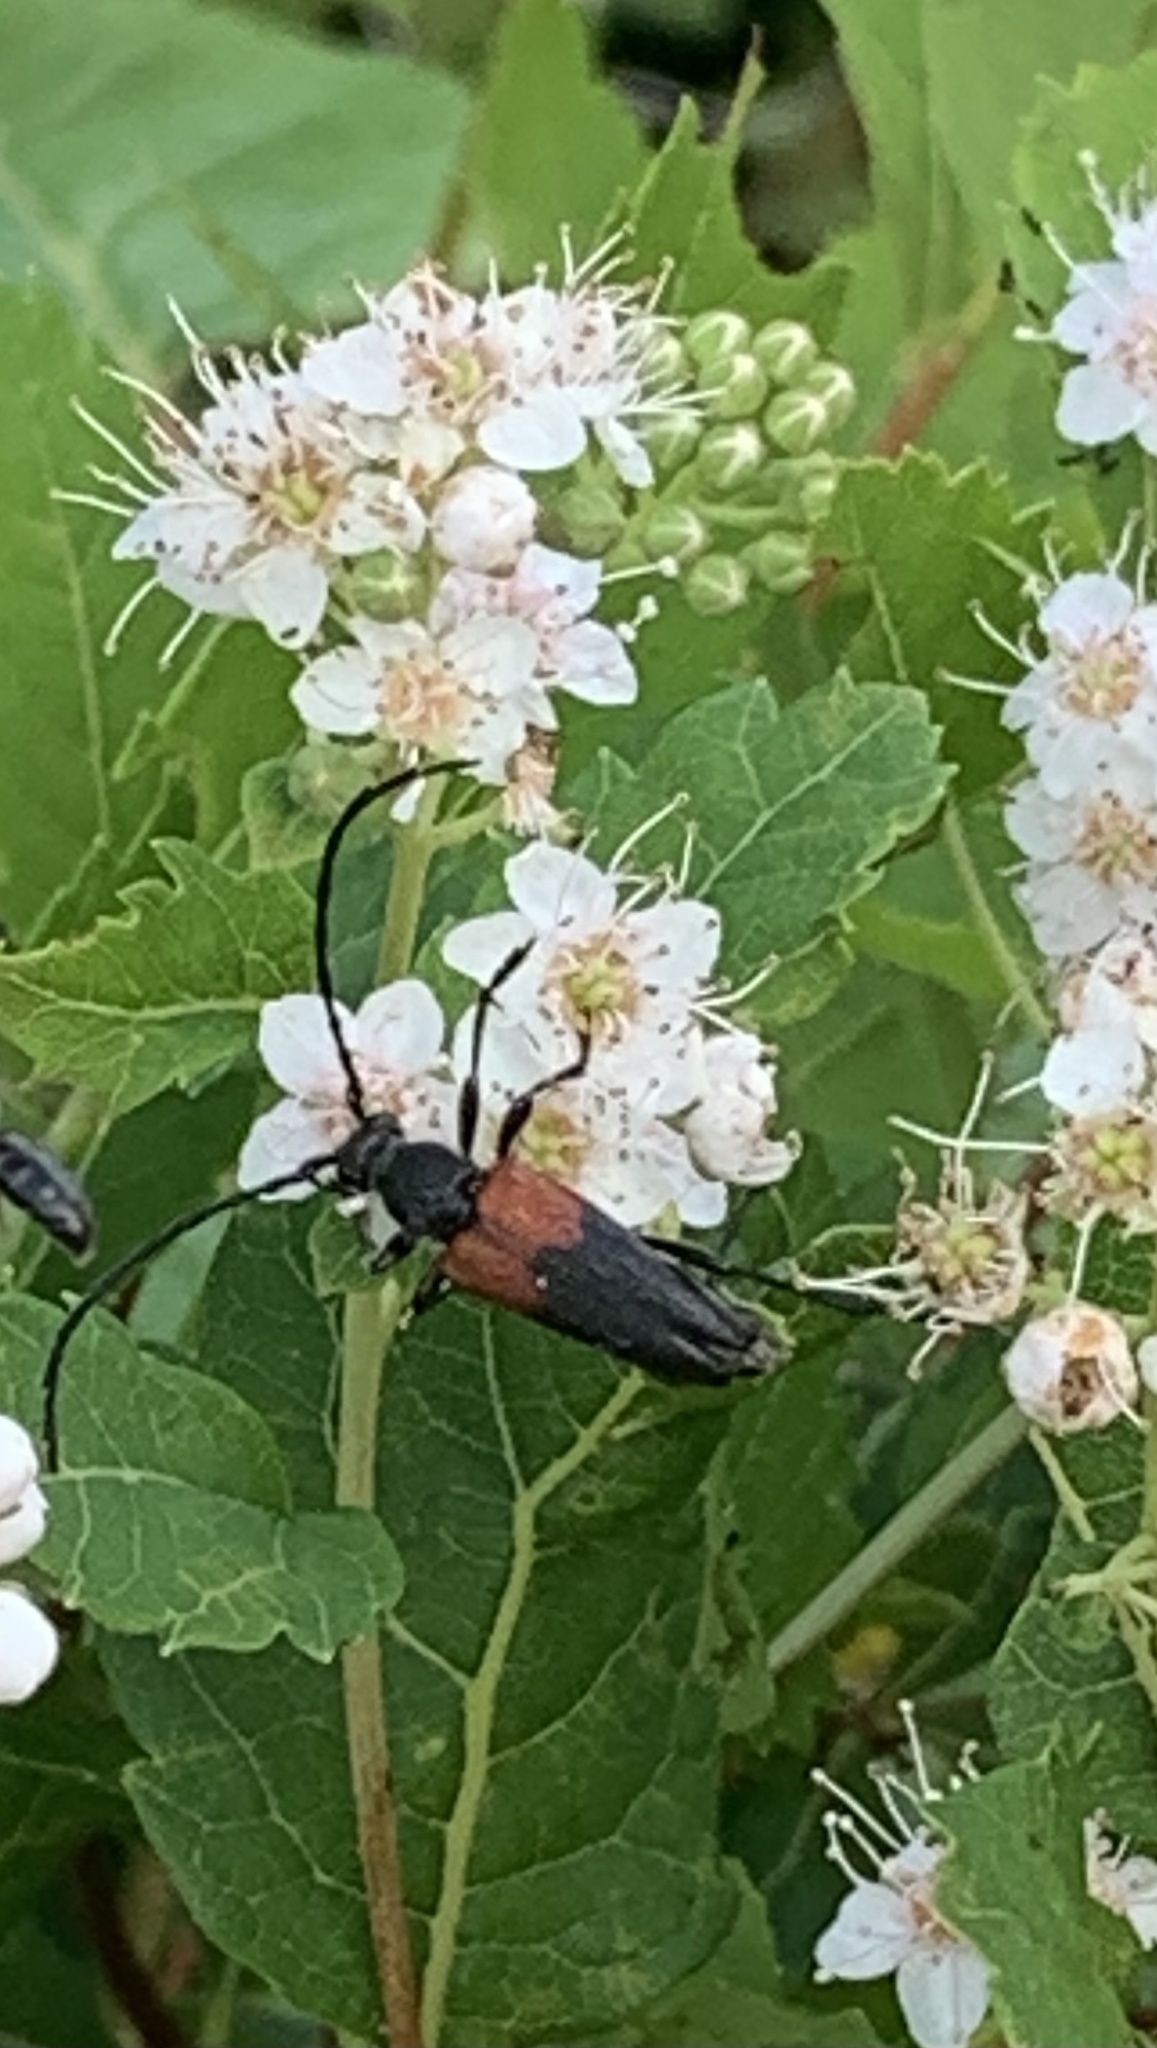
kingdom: Animalia
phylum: Arthropoda
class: Insecta
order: Coleoptera
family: Cerambycidae
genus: Stictoleptura
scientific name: Stictoleptura canadensis
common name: Red-shouldered pine borer
